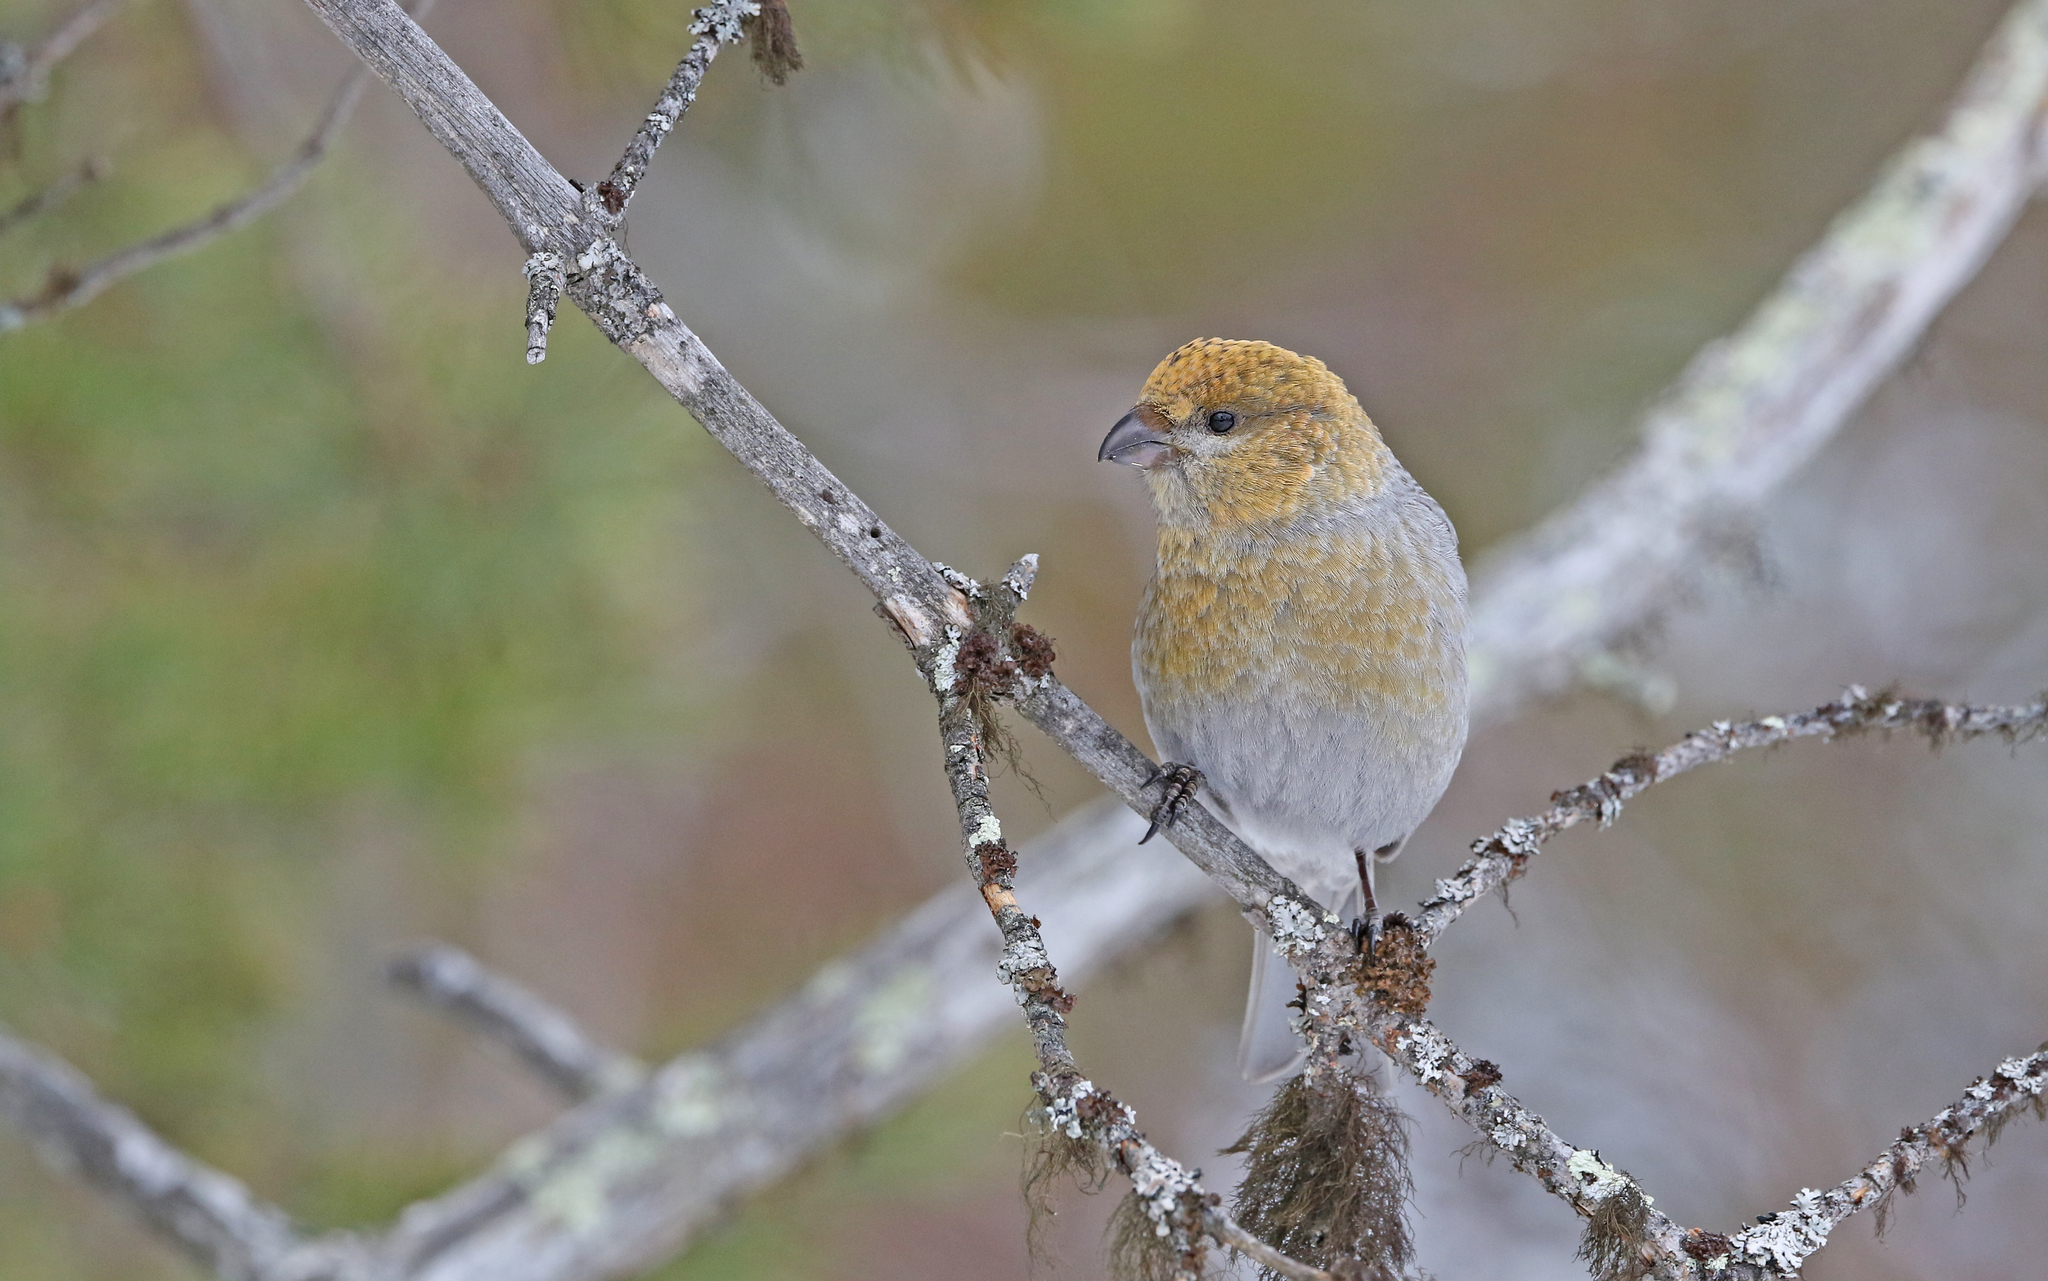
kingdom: Animalia
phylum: Chordata
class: Aves
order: Passeriformes
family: Fringillidae
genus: Pinicola
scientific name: Pinicola enucleator
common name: Pine grosbeak
